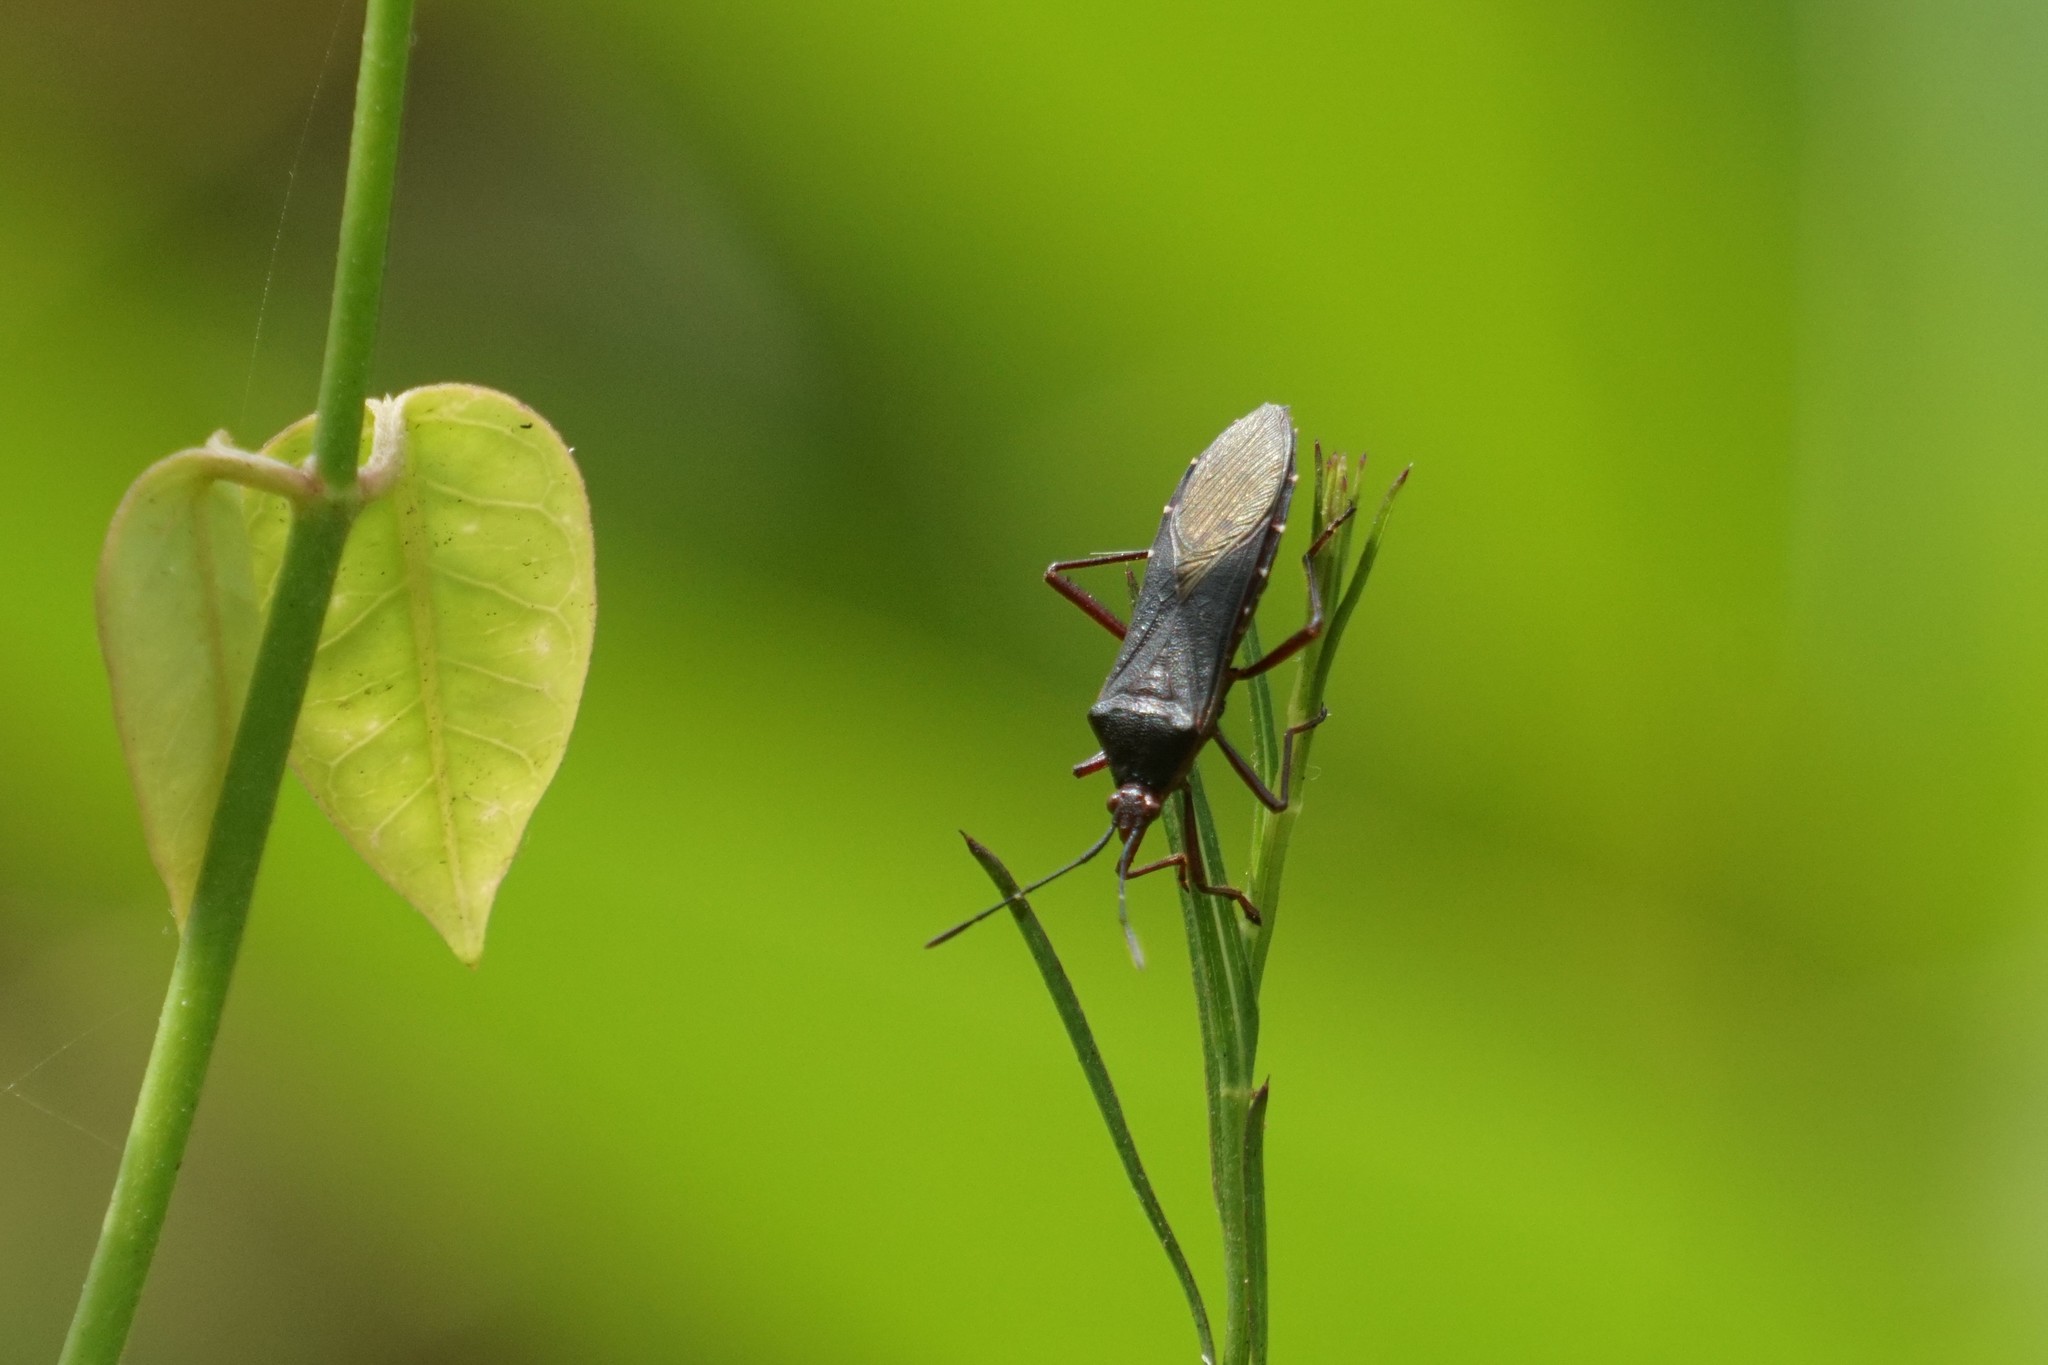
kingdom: Animalia
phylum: Arthropoda
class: Insecta
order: Hemiptera
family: Coreidae
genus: Namacus
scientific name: Namacus annulicornis
